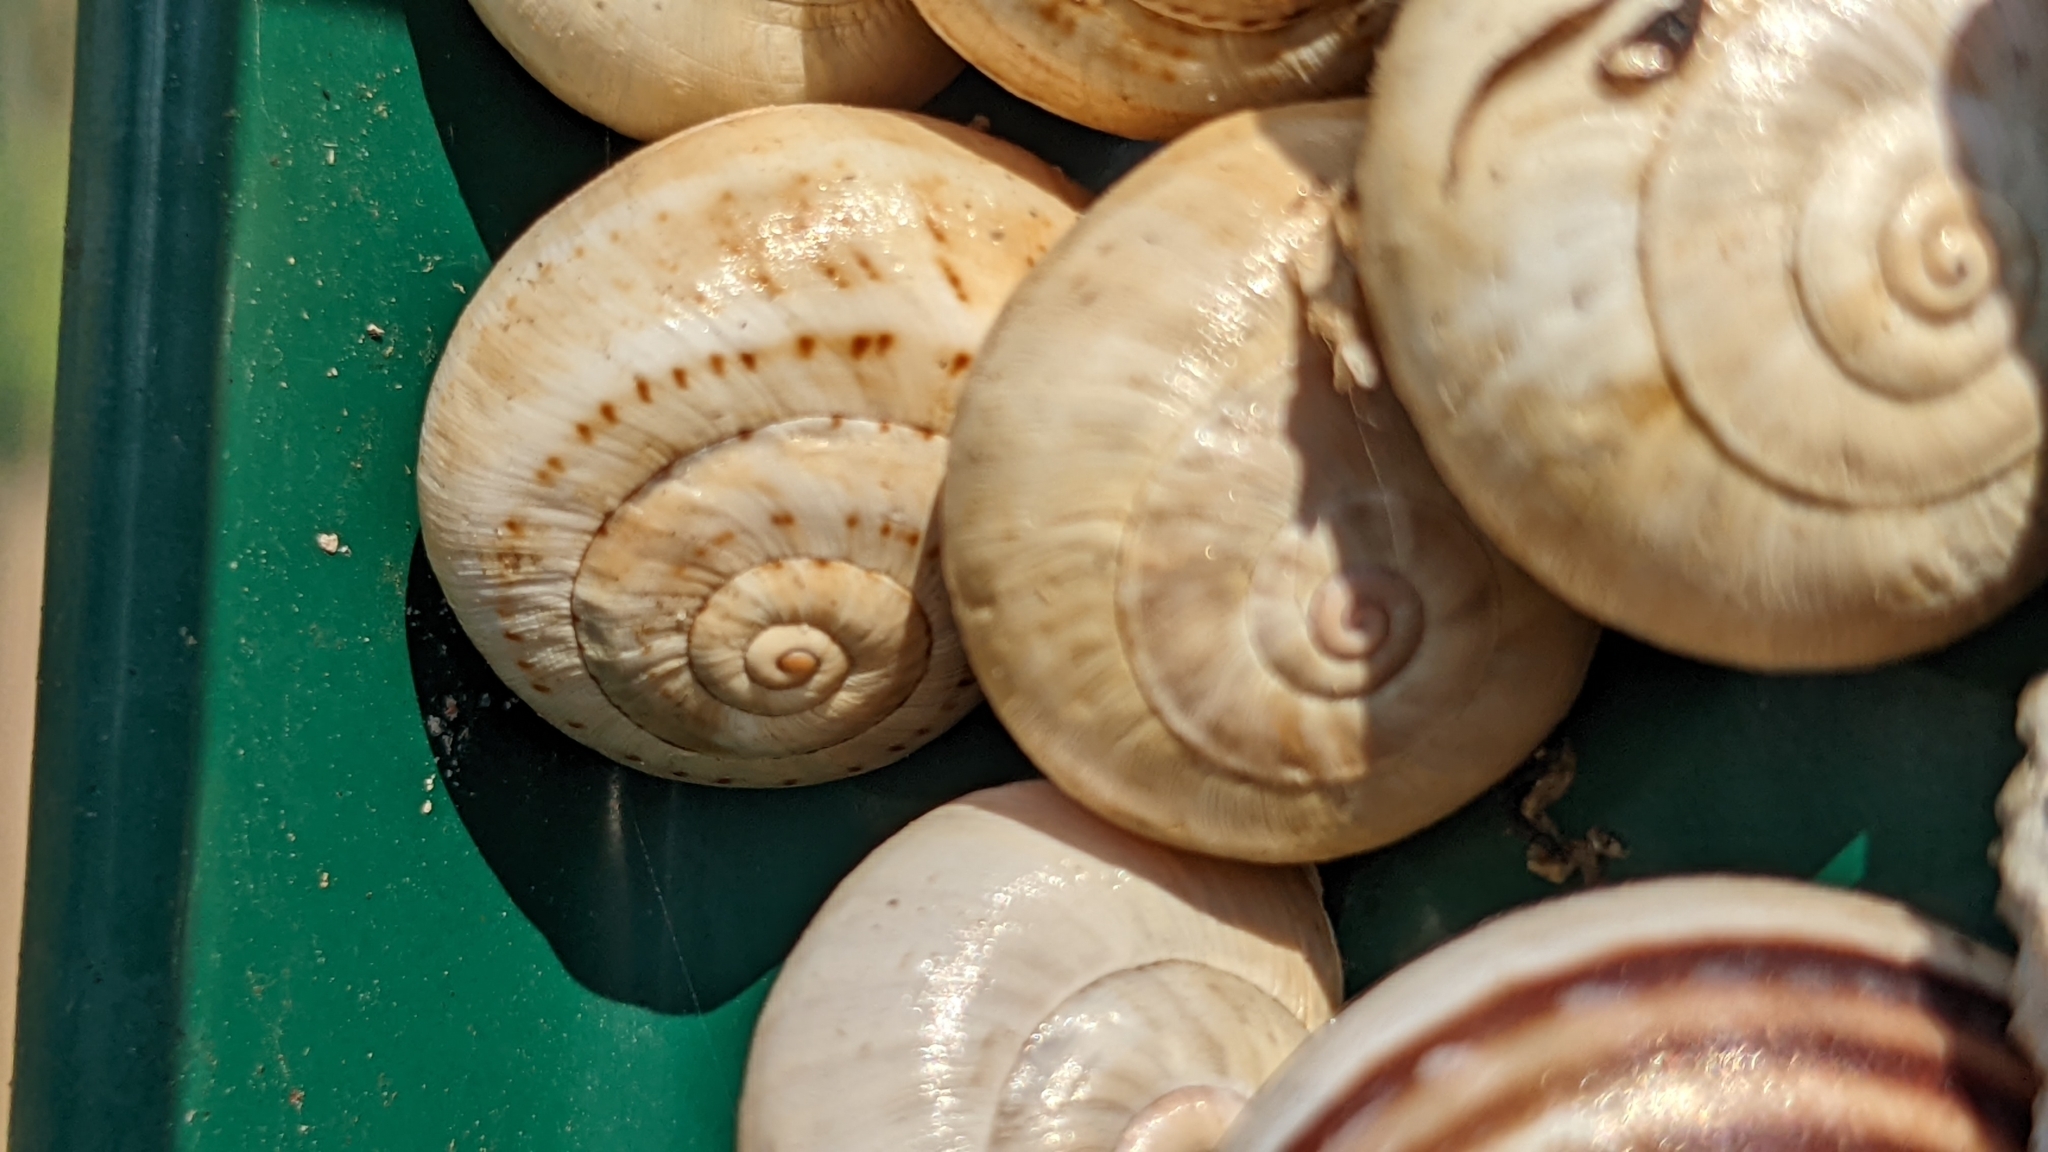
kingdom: Animalia
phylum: Mollusca
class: Gastropoda
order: Stylommatophora
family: Helicidae
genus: Theba
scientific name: Theba pisana
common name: White snail
